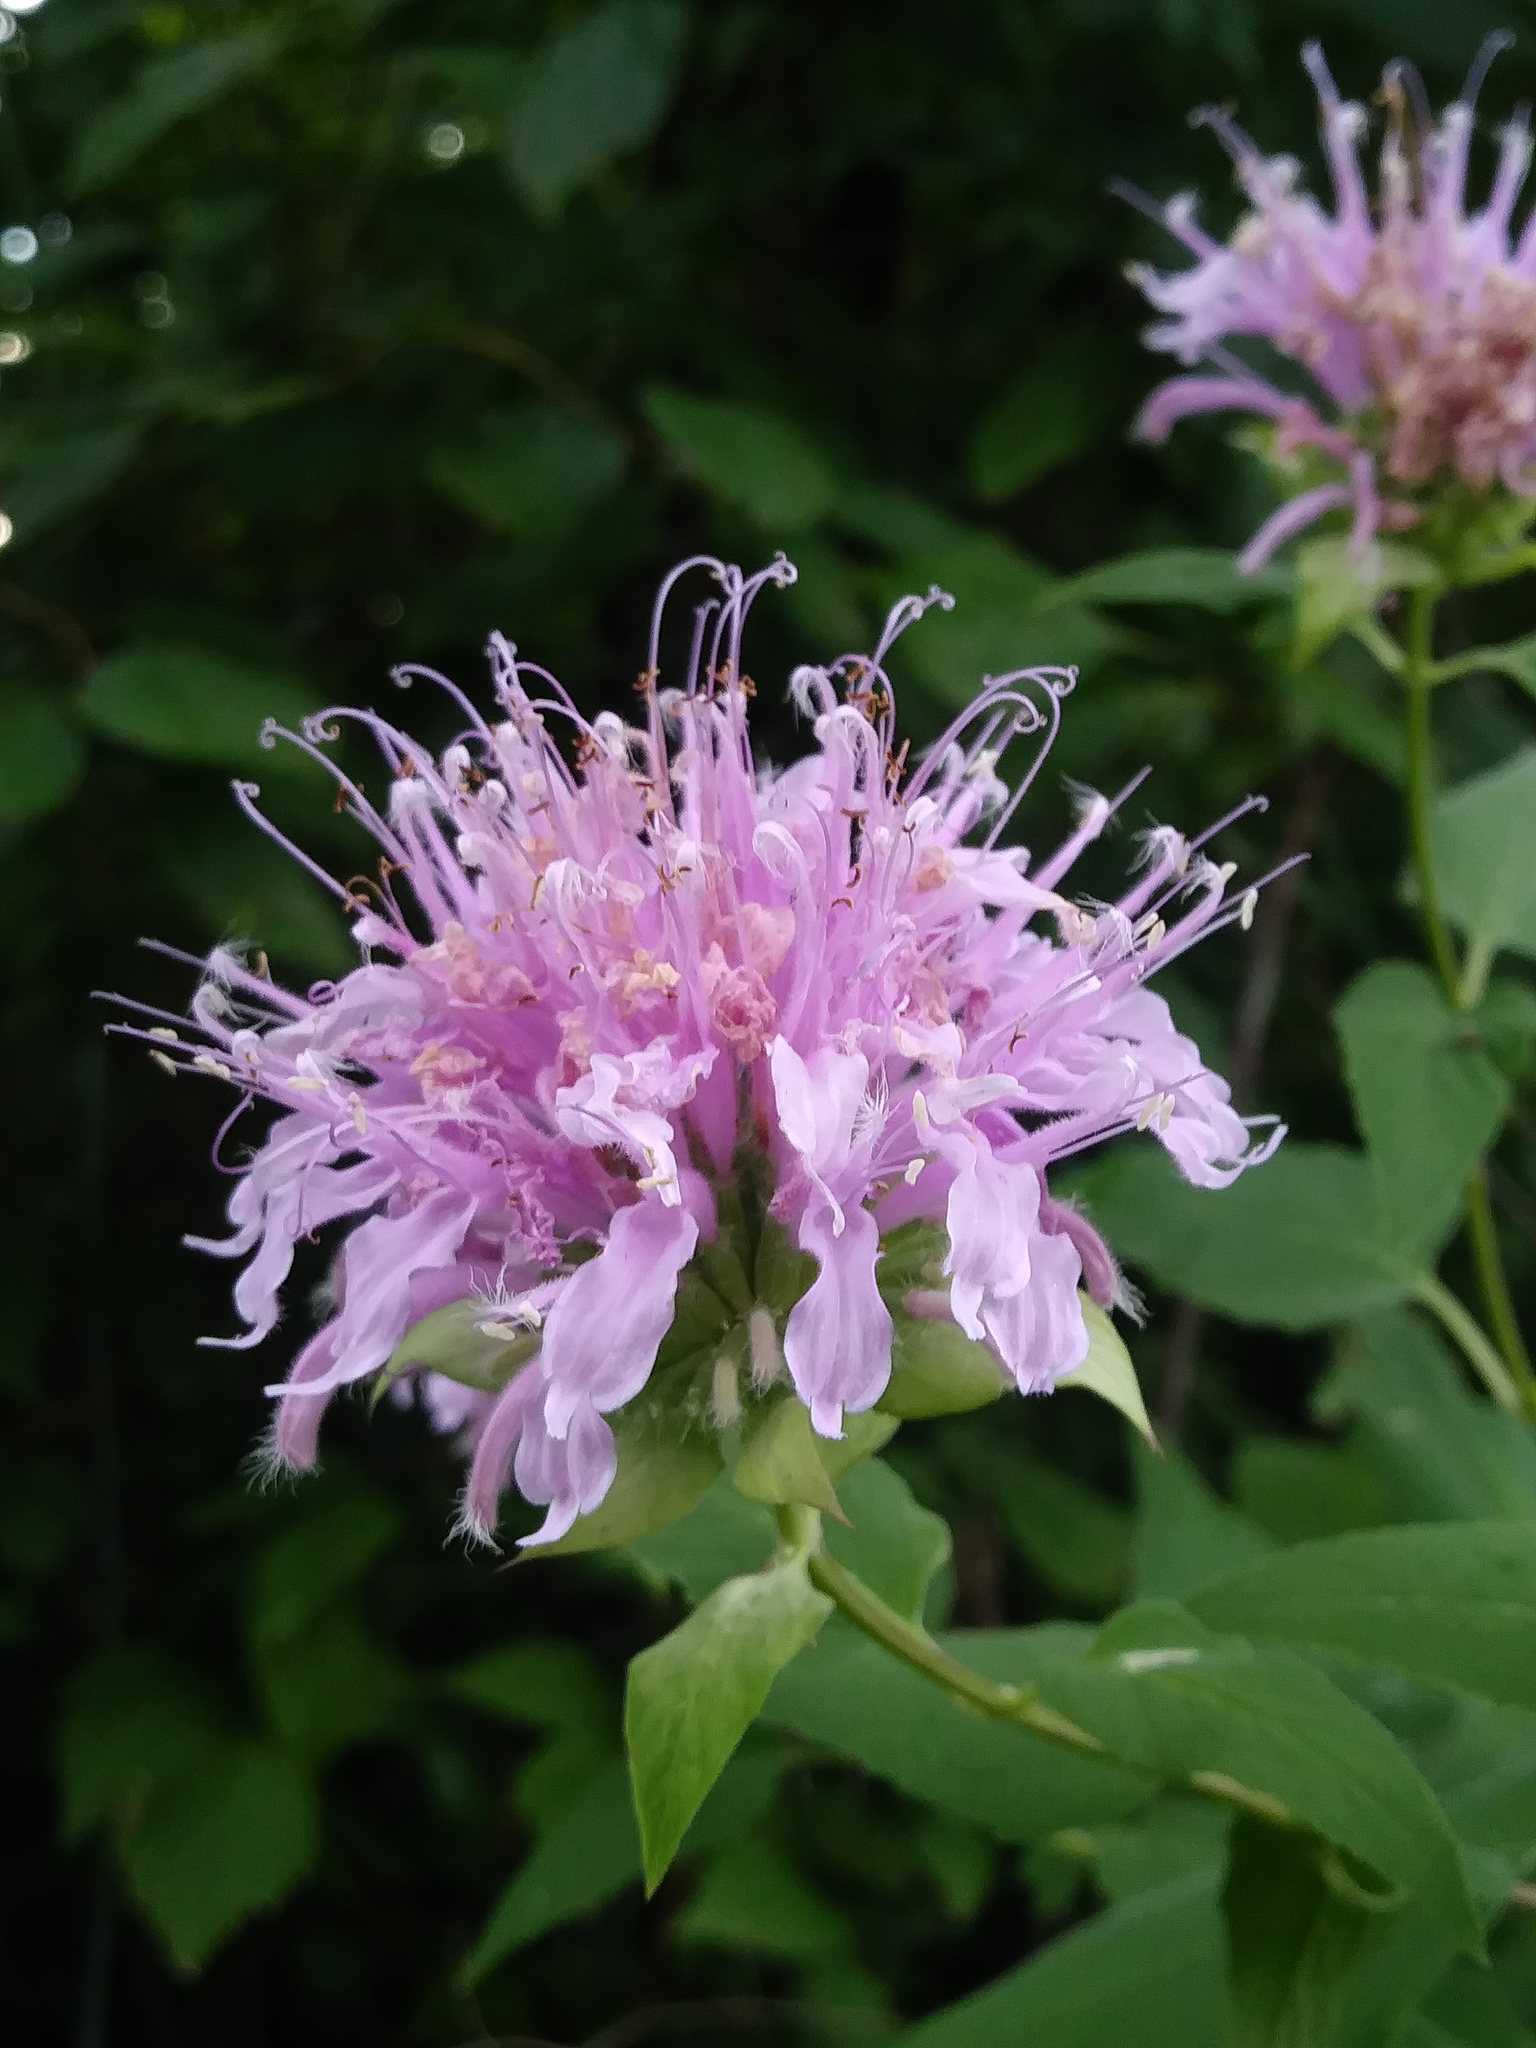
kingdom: Plantae
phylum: Tracheophyta
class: Magnoliopsida
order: Lamiales
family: Lamiaceae
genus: Monarda
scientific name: Monarda fistulosa
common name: Purple beebalm
